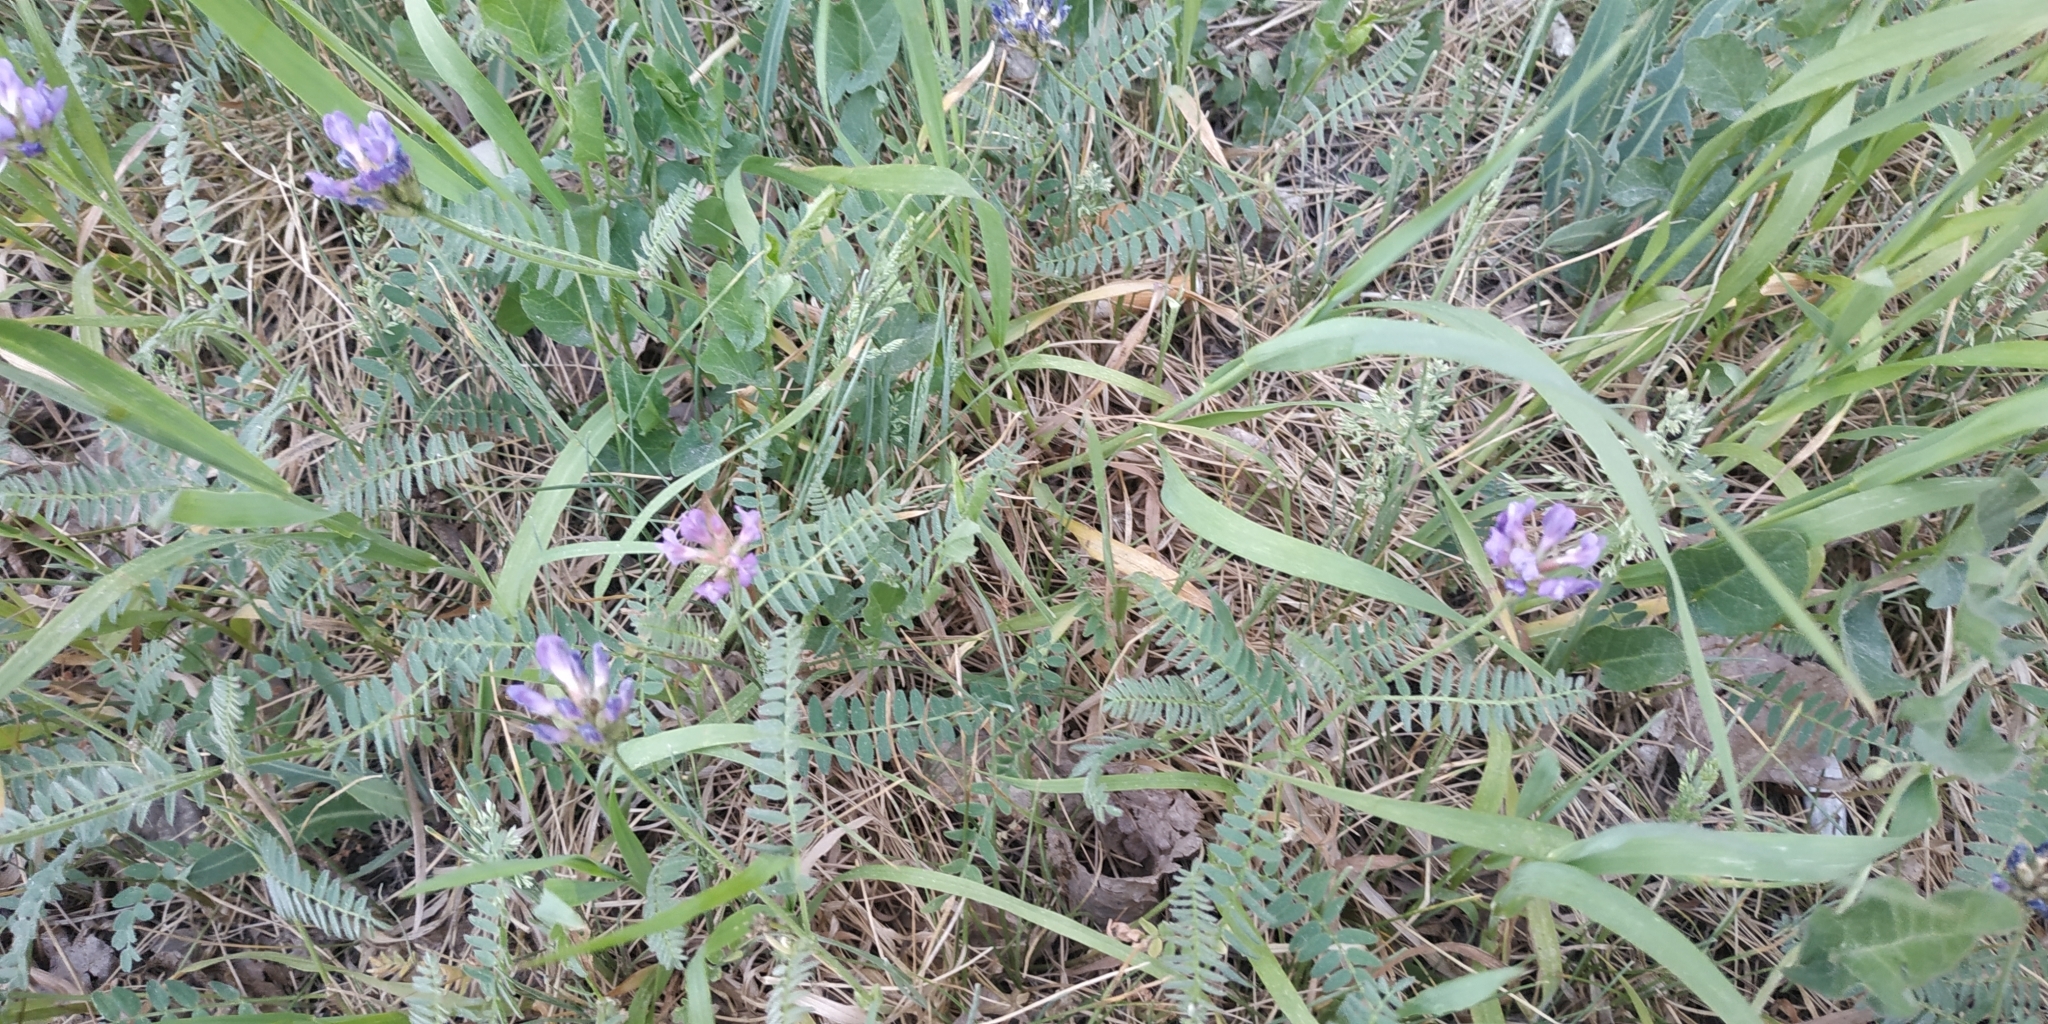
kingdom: Plantae
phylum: Tracheophyta
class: Magnoliopsida
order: Fabales
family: Fabaceae
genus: Astragalus
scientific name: Astragalus danicus
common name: Purple milk-vetch
